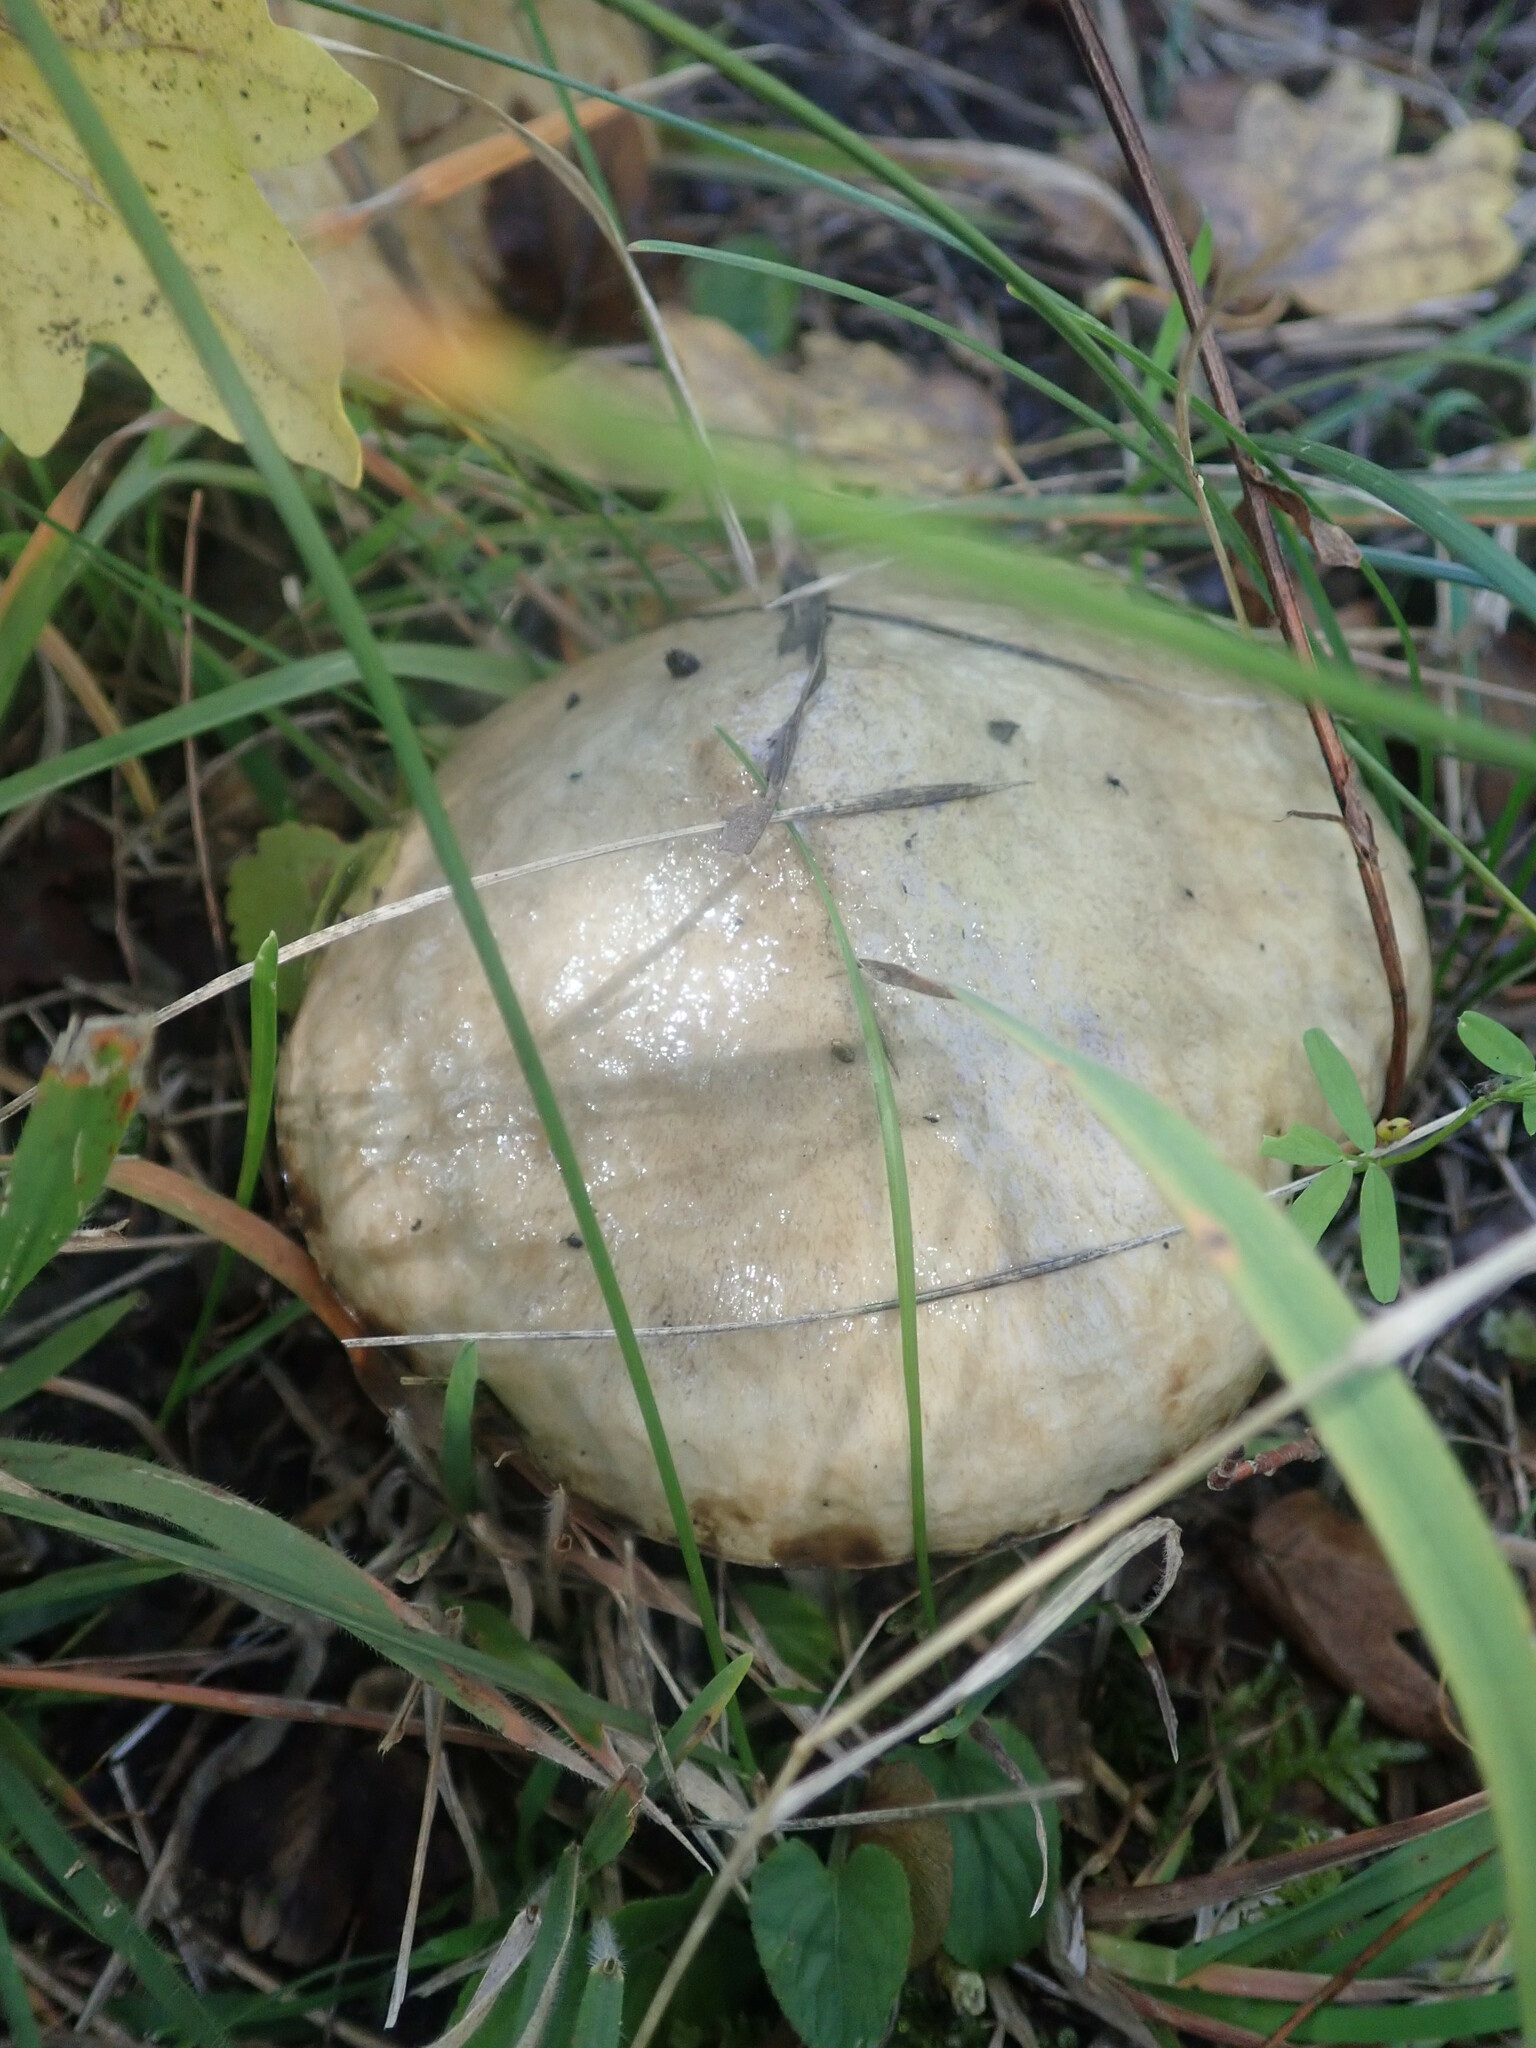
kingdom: Fungi
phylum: Basidiomycota
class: Agaricomycetes
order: Boletales
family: Suillaceae
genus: Suillus
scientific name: Suillus viscidus
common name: Sticky bolete
